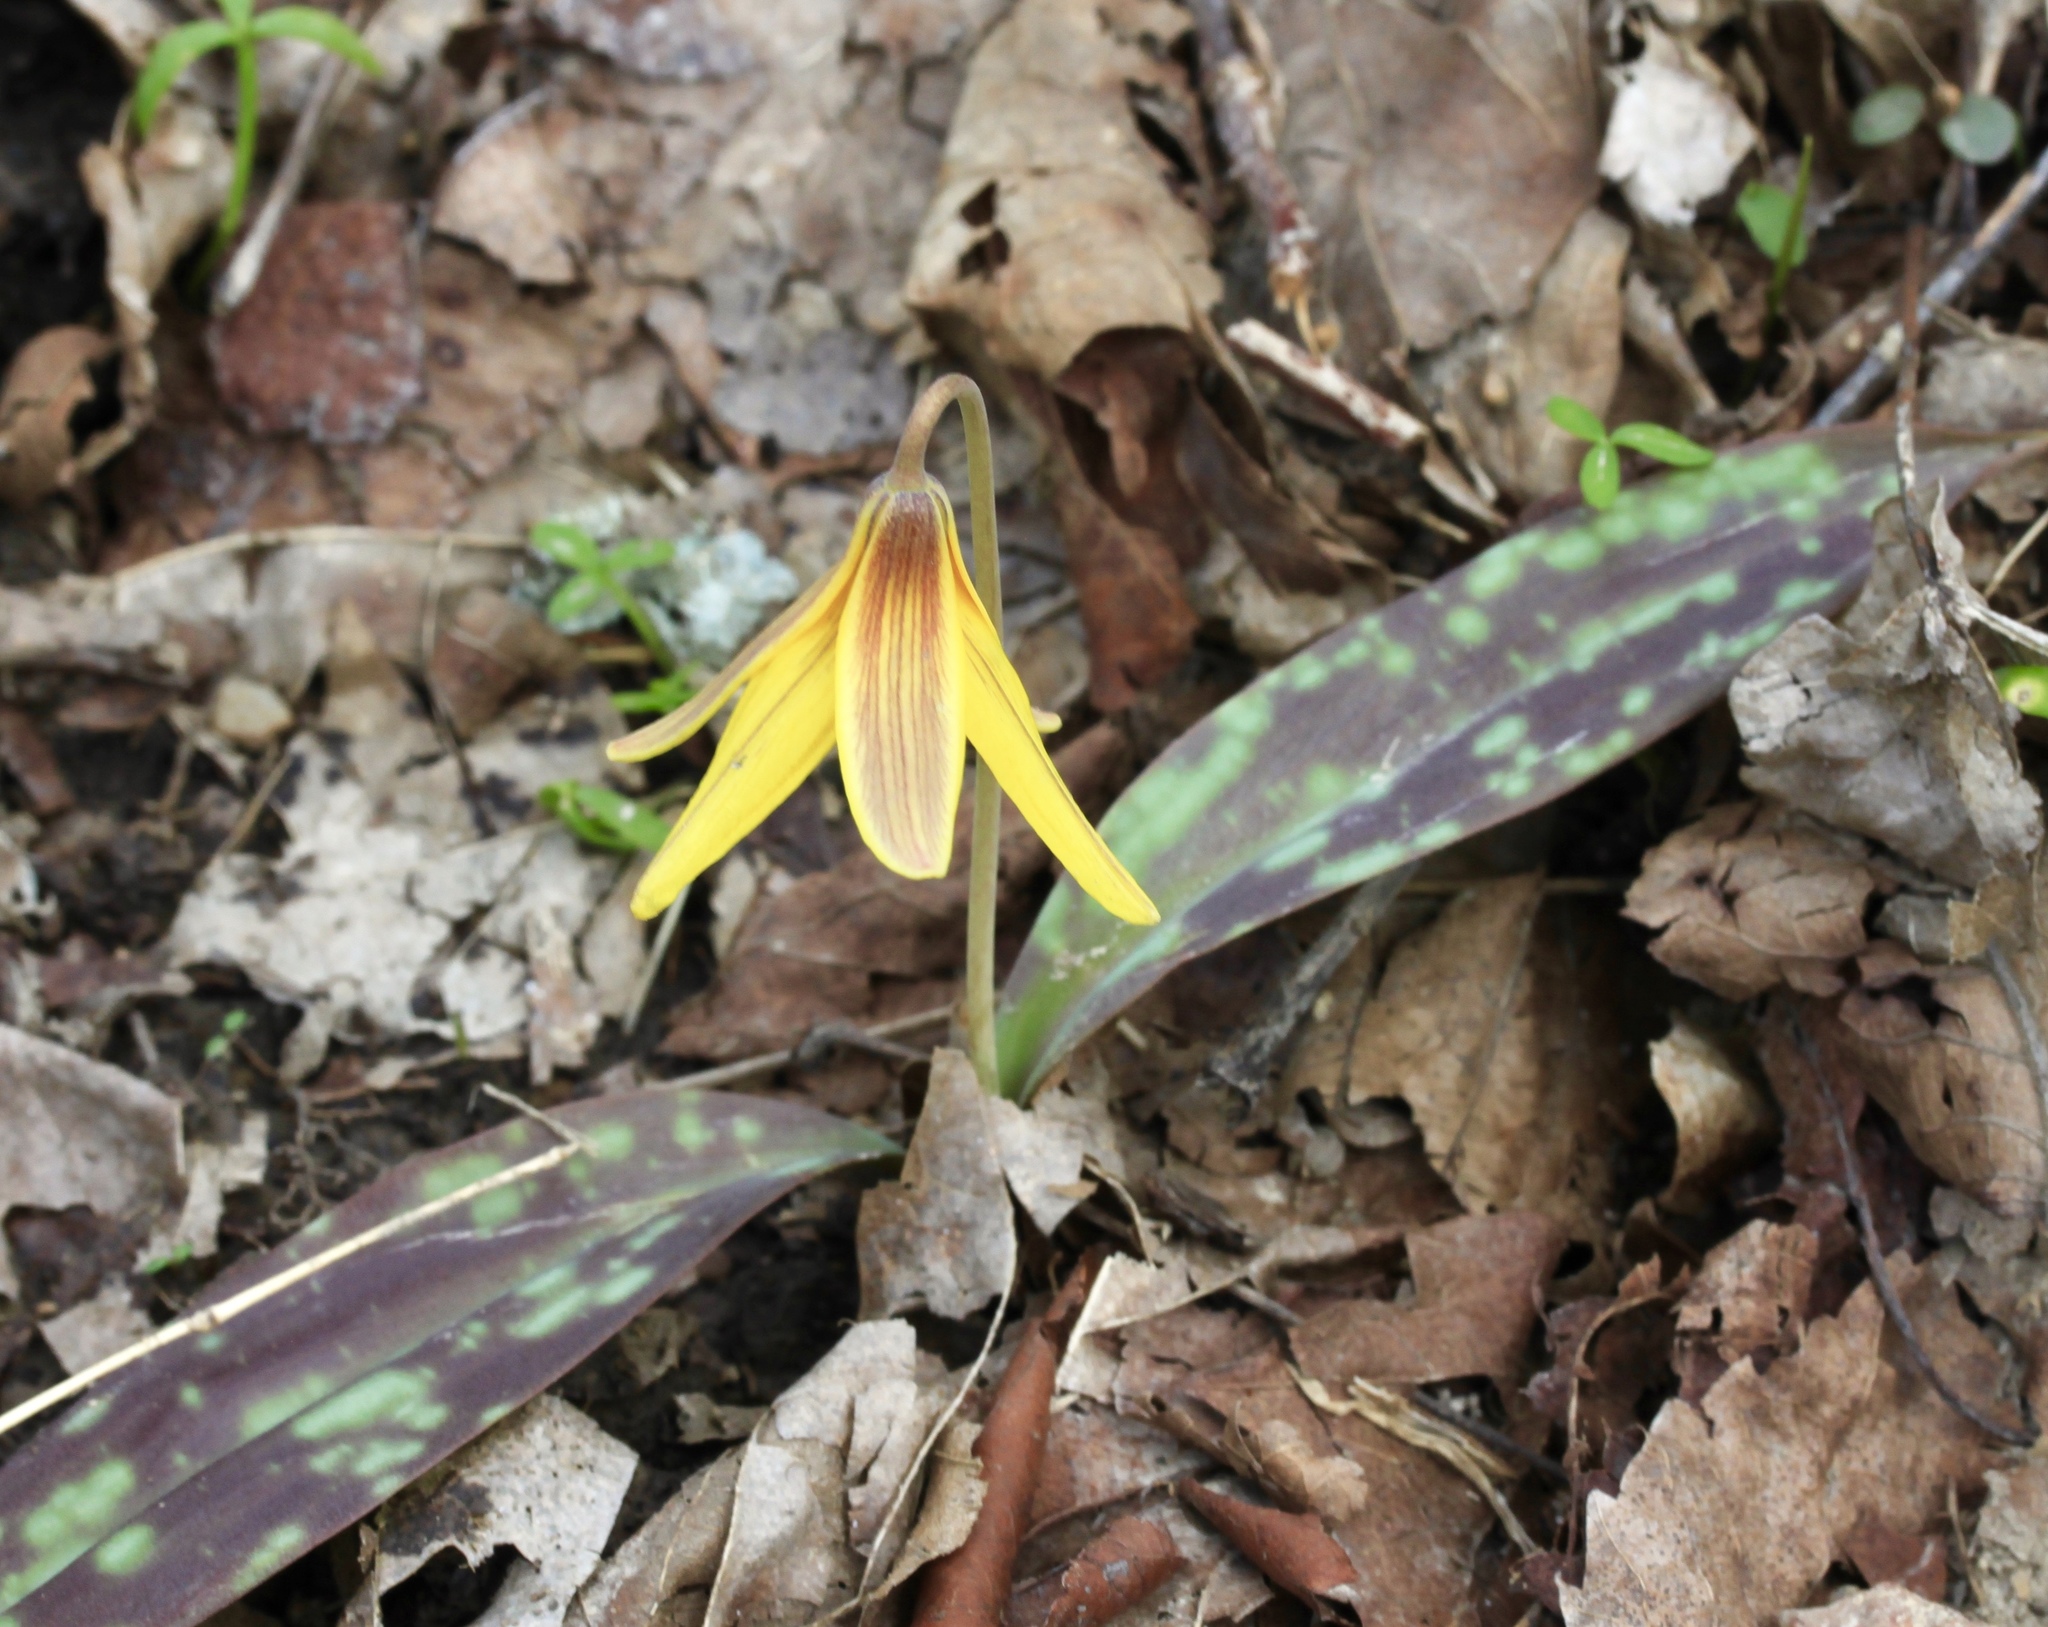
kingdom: Plantae
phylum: Tracheophyta
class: Liliopsida
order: Liliales
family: Liliaceae
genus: Erythronium
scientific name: Erythronium americanum
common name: Yellow adder's-tongue
